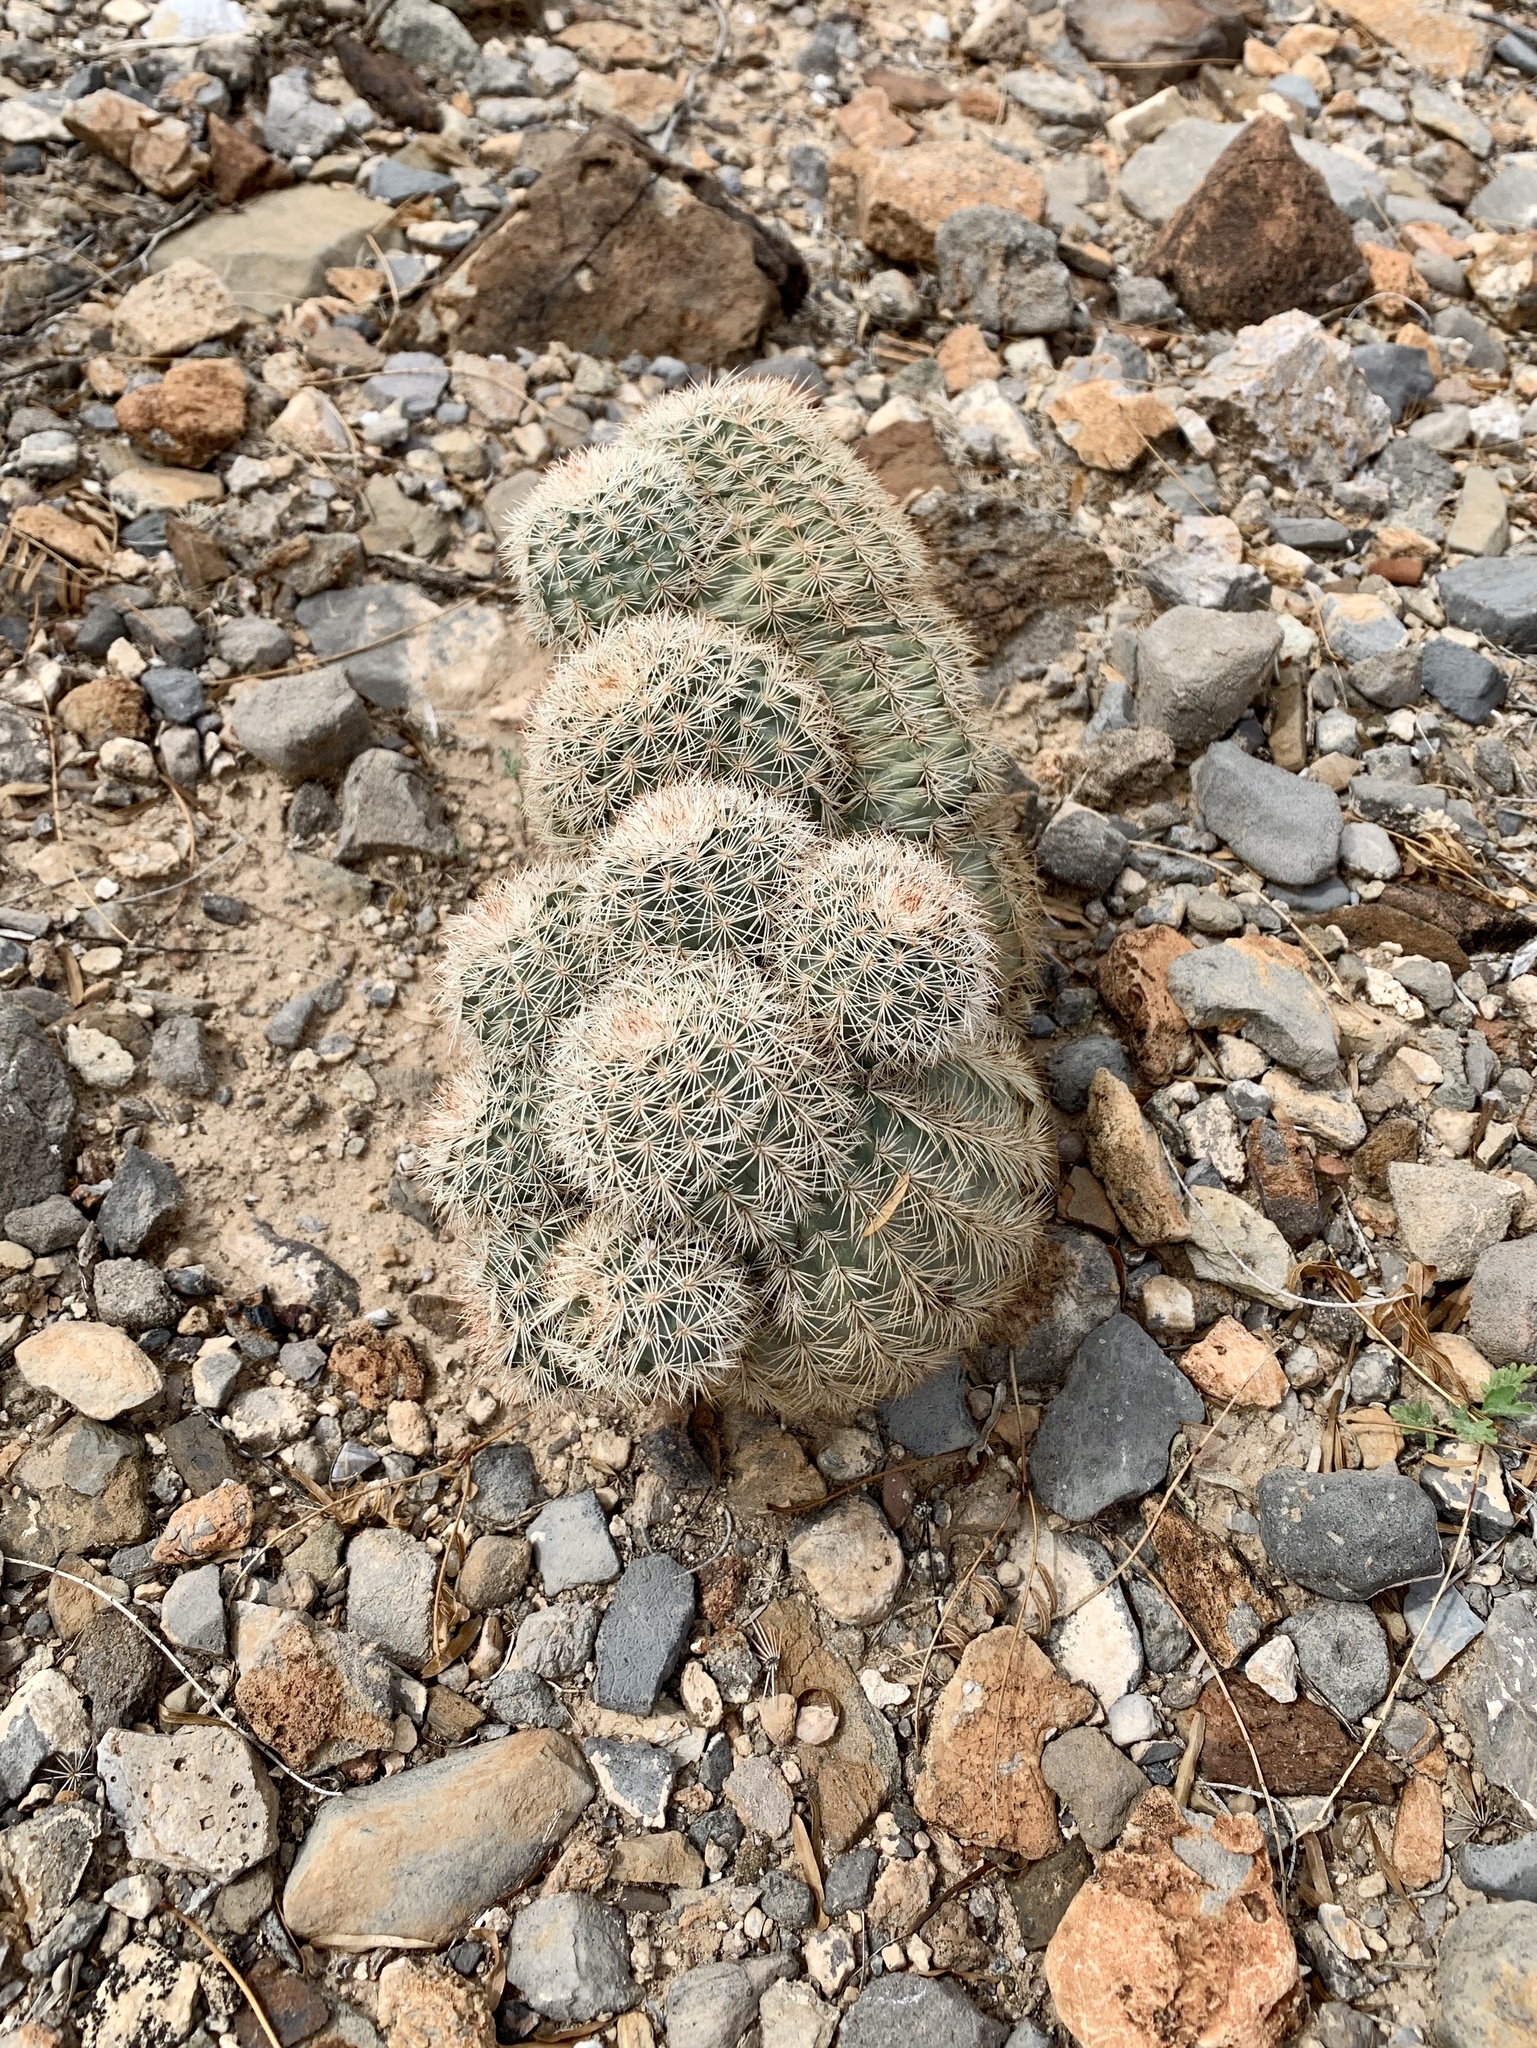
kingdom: Plantae
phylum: Tracheophyta
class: Magnoliopsida
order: Caryophyllales
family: Cactaceae
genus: Echinocereus
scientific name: Echinocereus dasyacanthus
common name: Spiny hedgehog cactus
